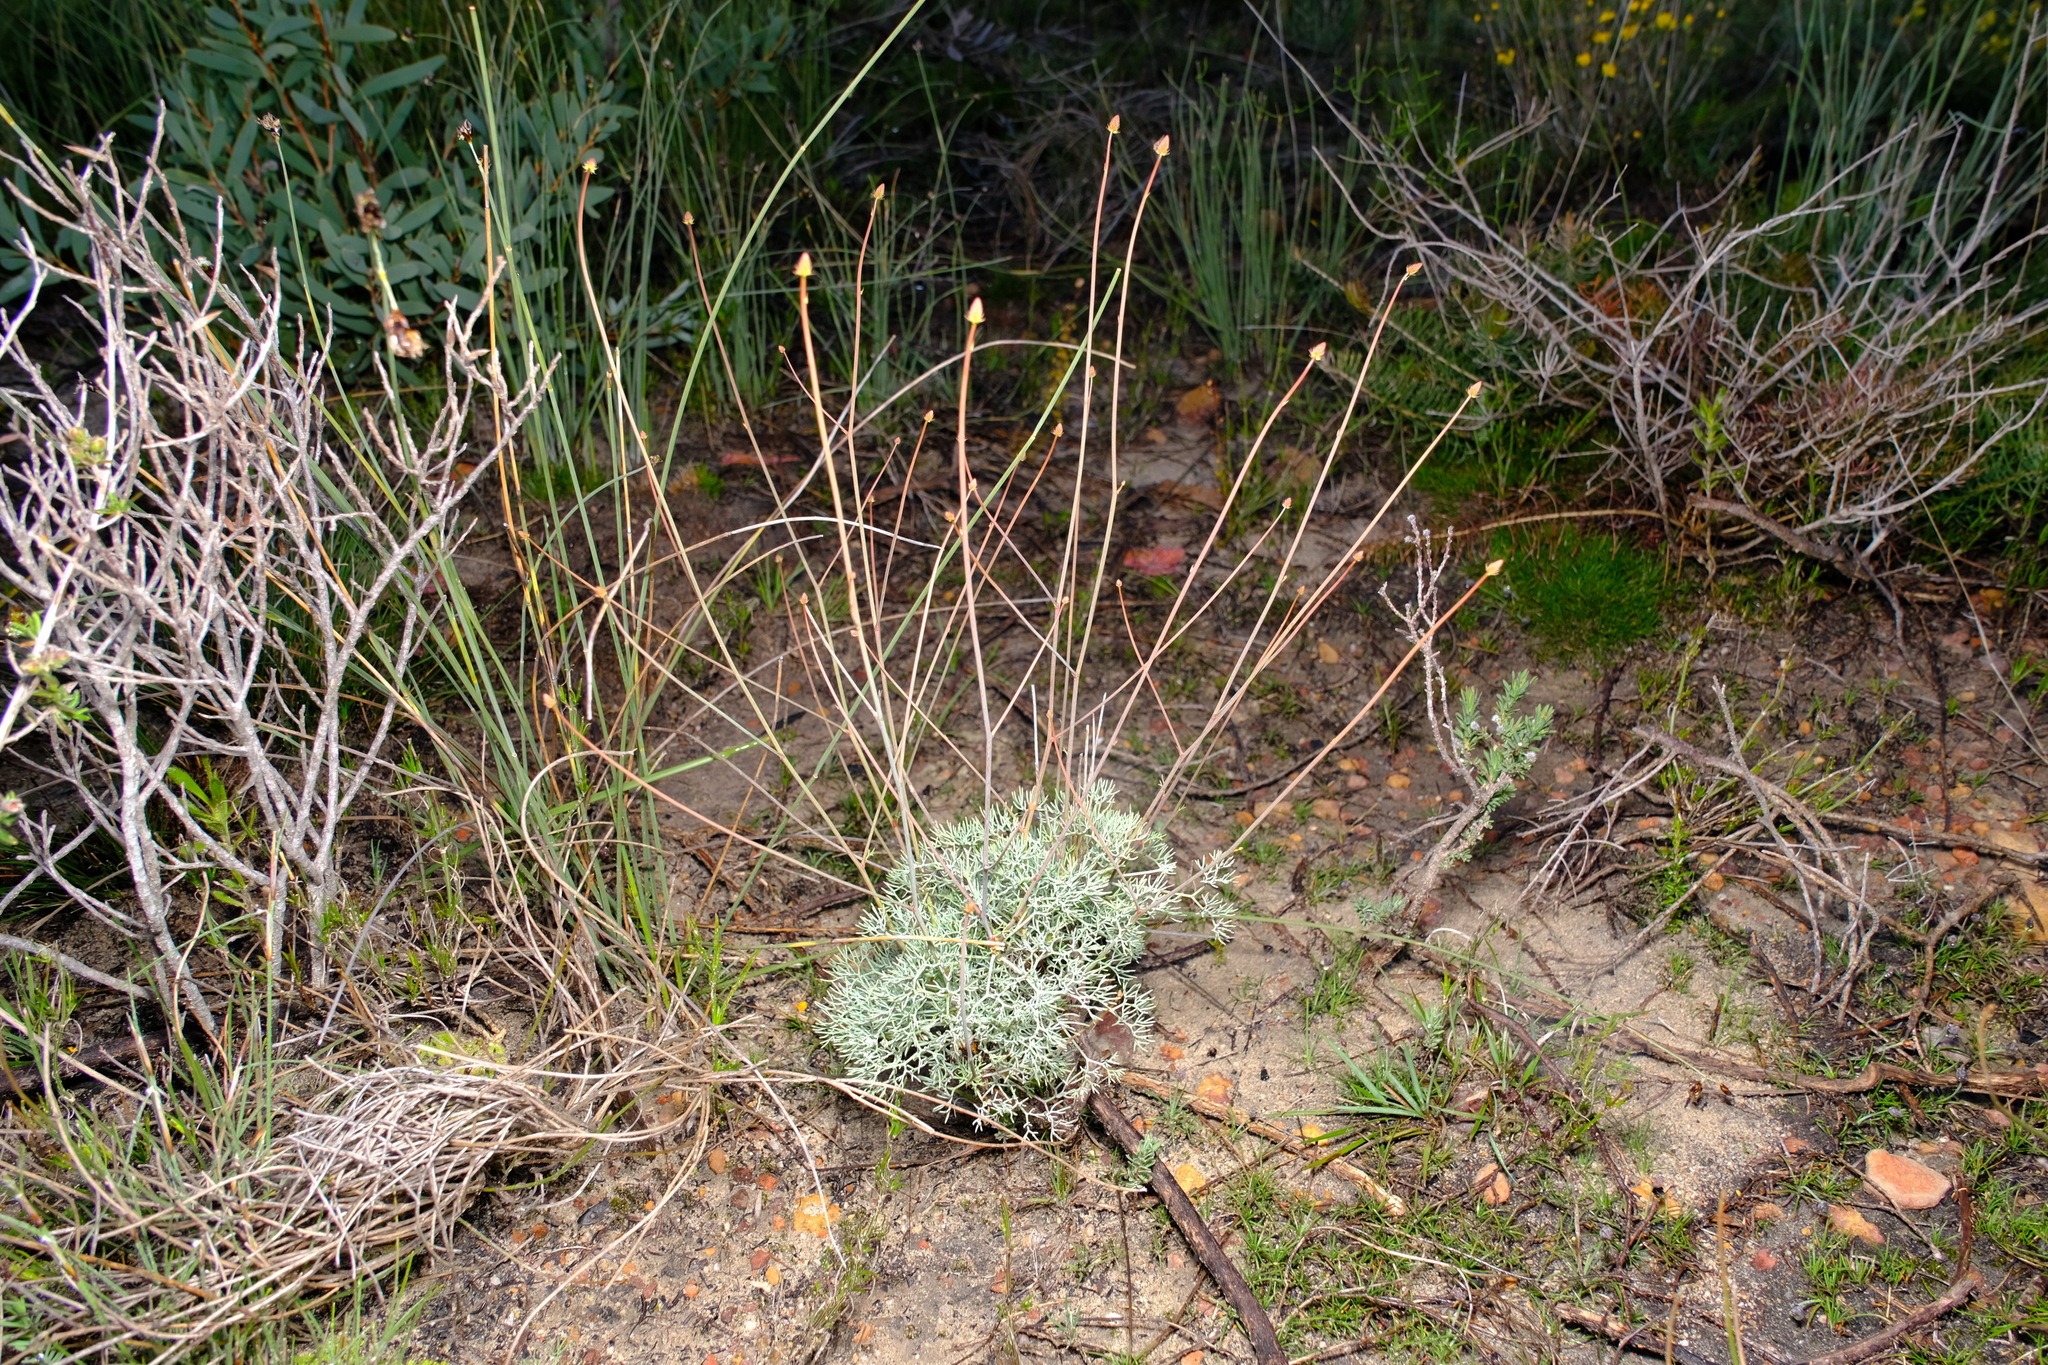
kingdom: Plantae
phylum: Tracheophyta
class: Magnoliopsida
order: Proteales
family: Proteaceae
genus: Stirlingia
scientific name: Stirlingia simplex
